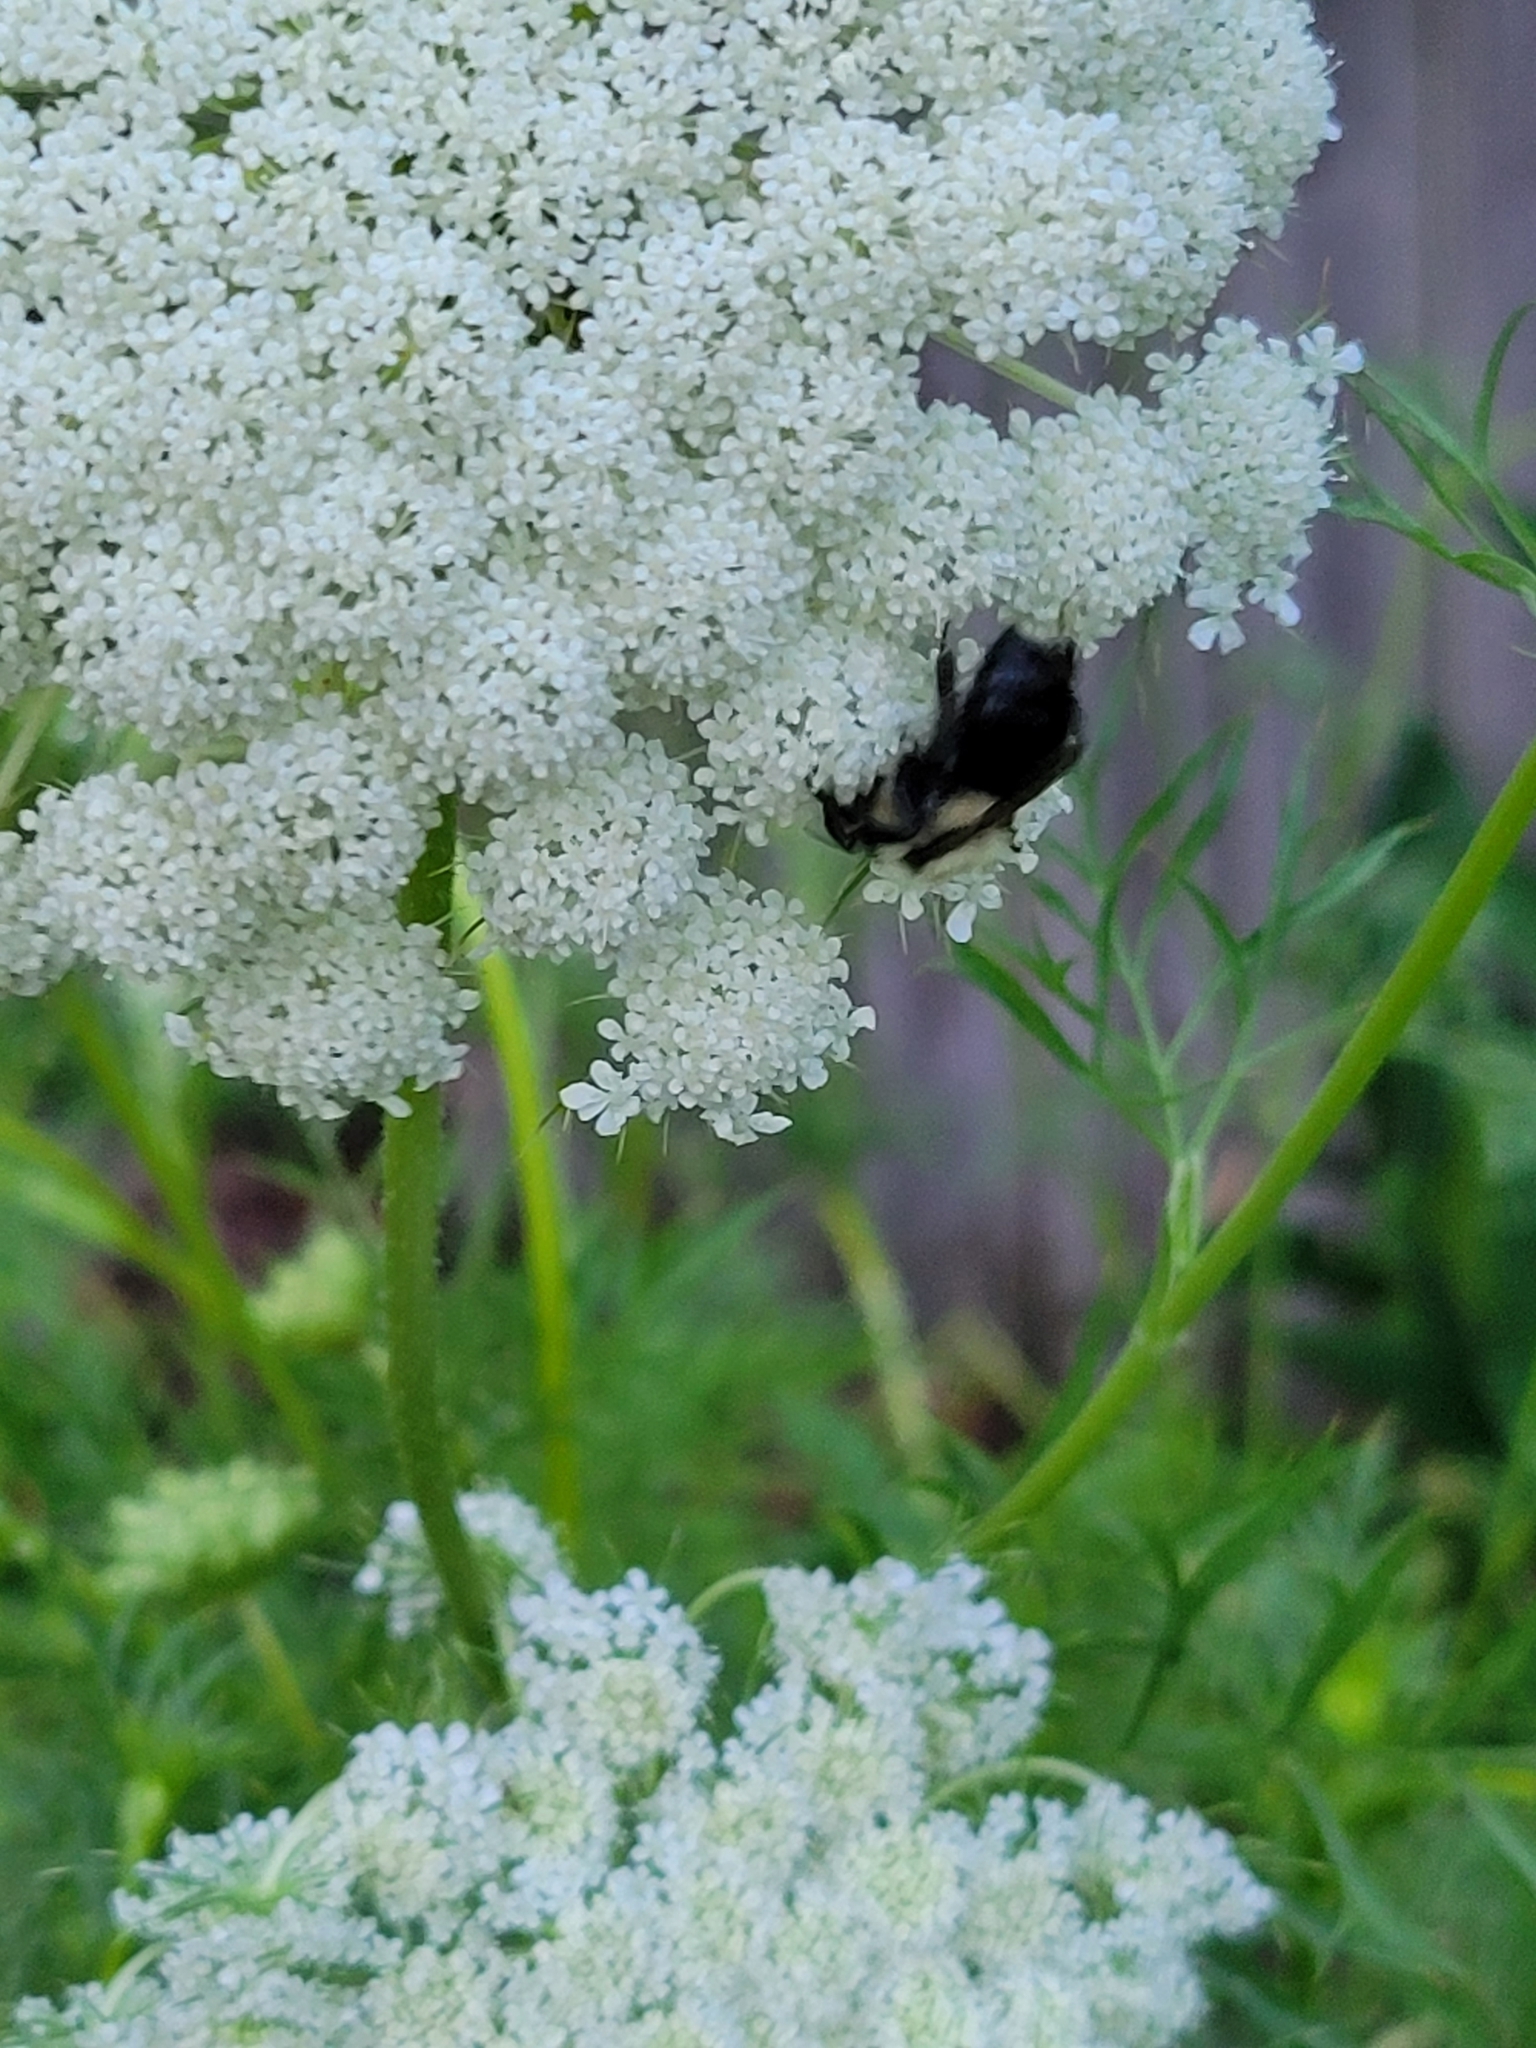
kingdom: Animalia
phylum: Arthropoda
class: Insecta
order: Hymenoptera
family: Apidae
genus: Bombus
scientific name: Bombus impatiens
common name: Common eastern bumble bee
